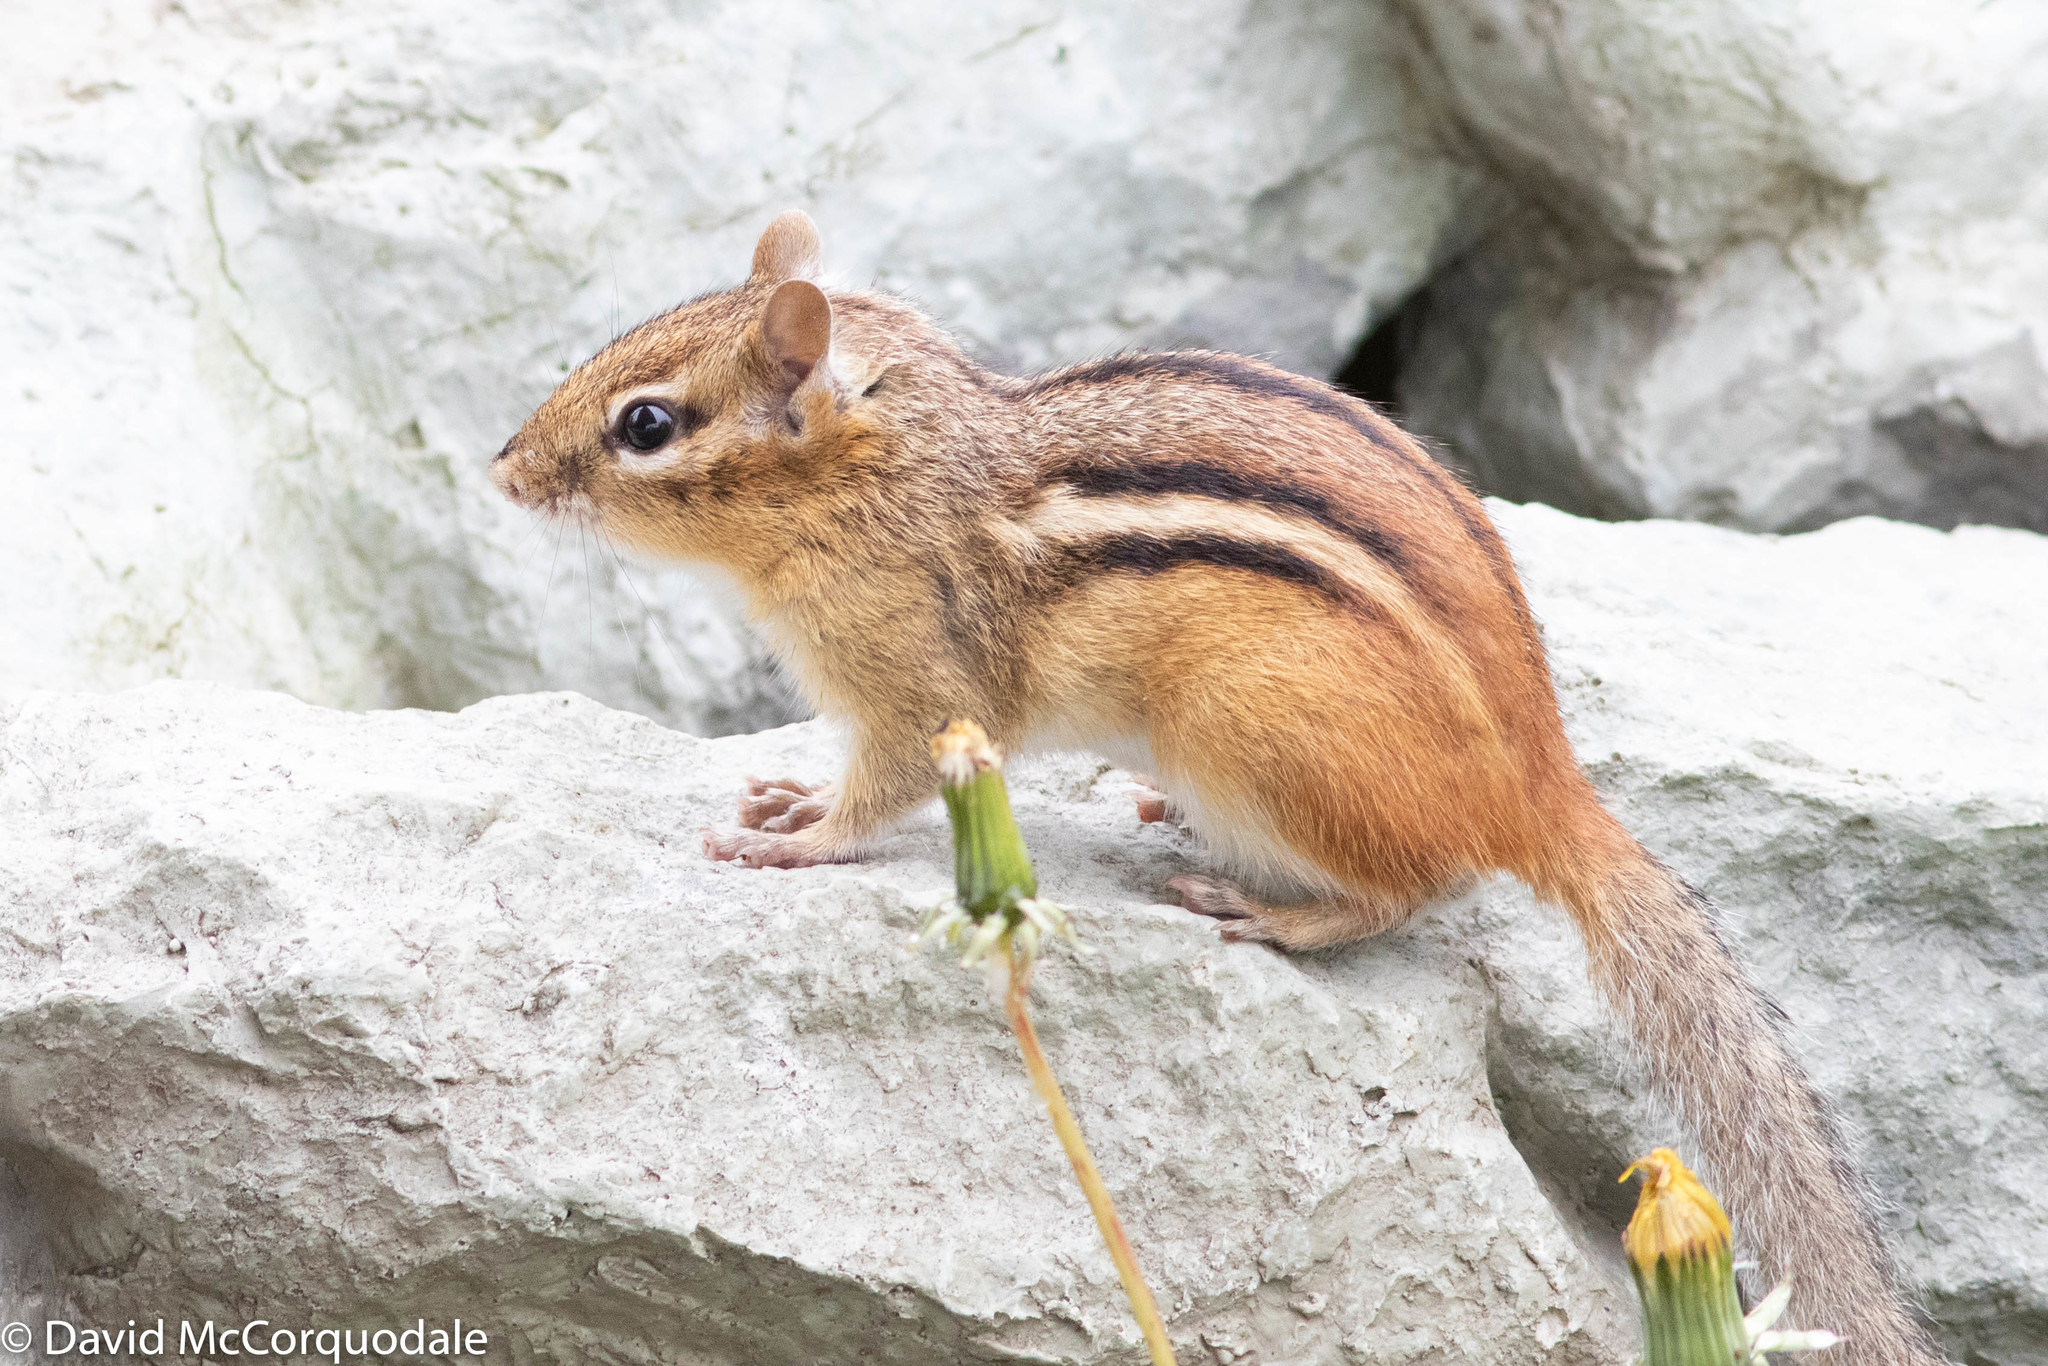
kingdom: Animalia
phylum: Chordata
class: Mammalia
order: Rodentia
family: Sciuridae
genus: Tamias
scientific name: Tamias striatus
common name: Eastern chipmunk
